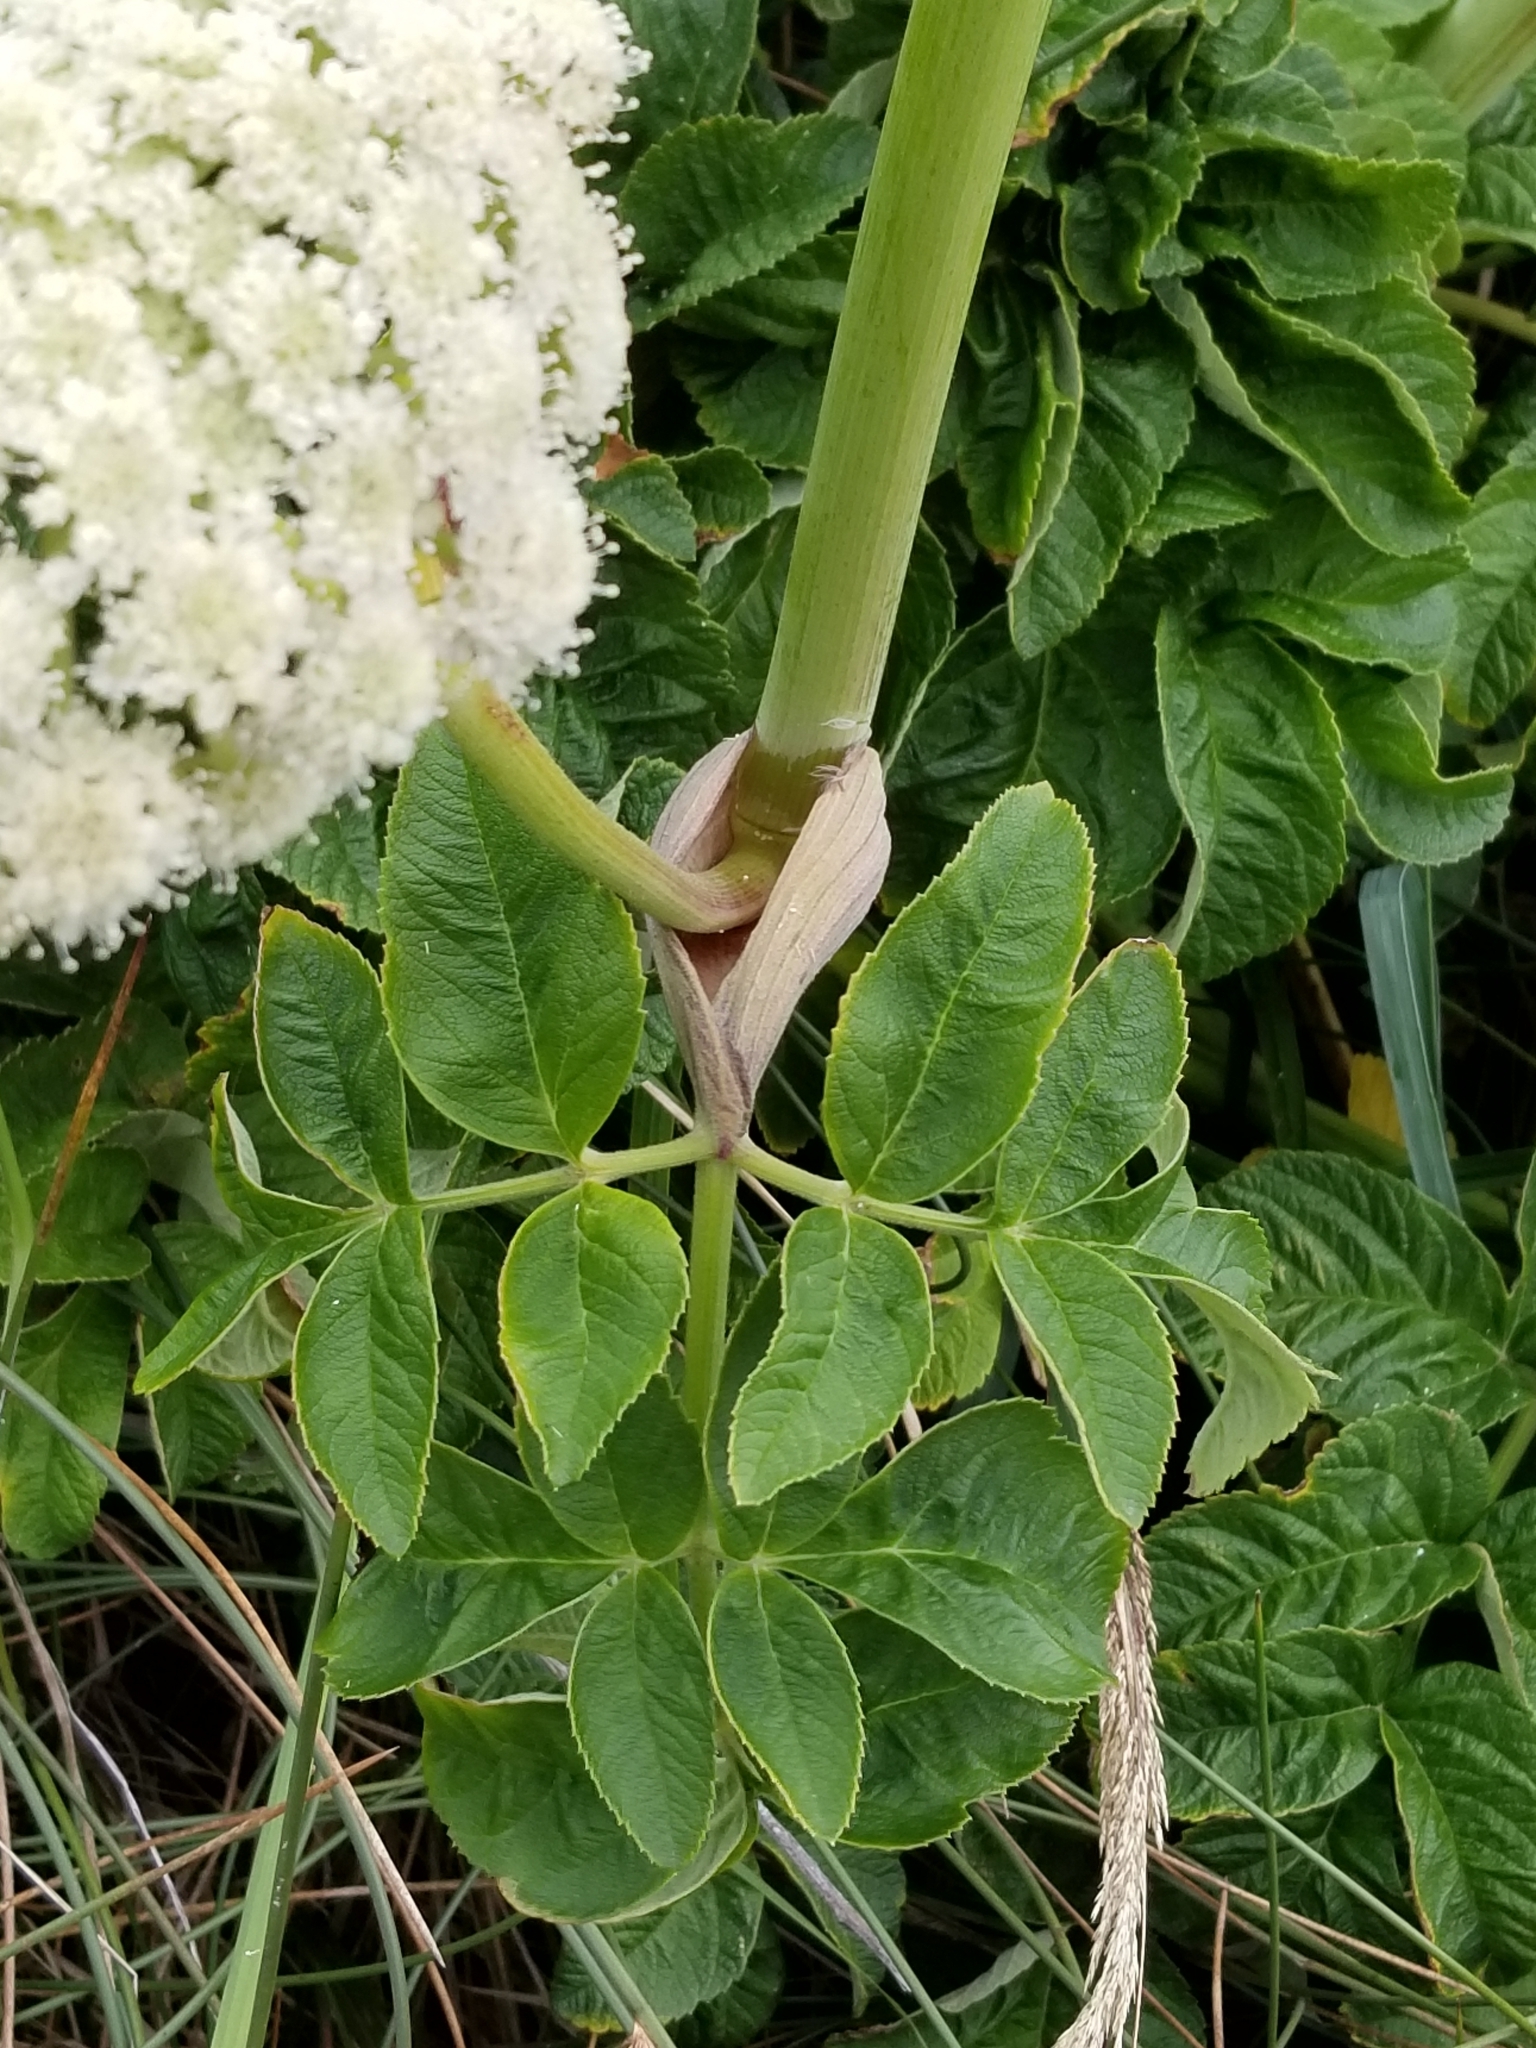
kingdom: Plantae
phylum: Tracheophyta
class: Magnoliopsida
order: Apiales
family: Apiaceae
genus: Angelica
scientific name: Angelica hendersonii
